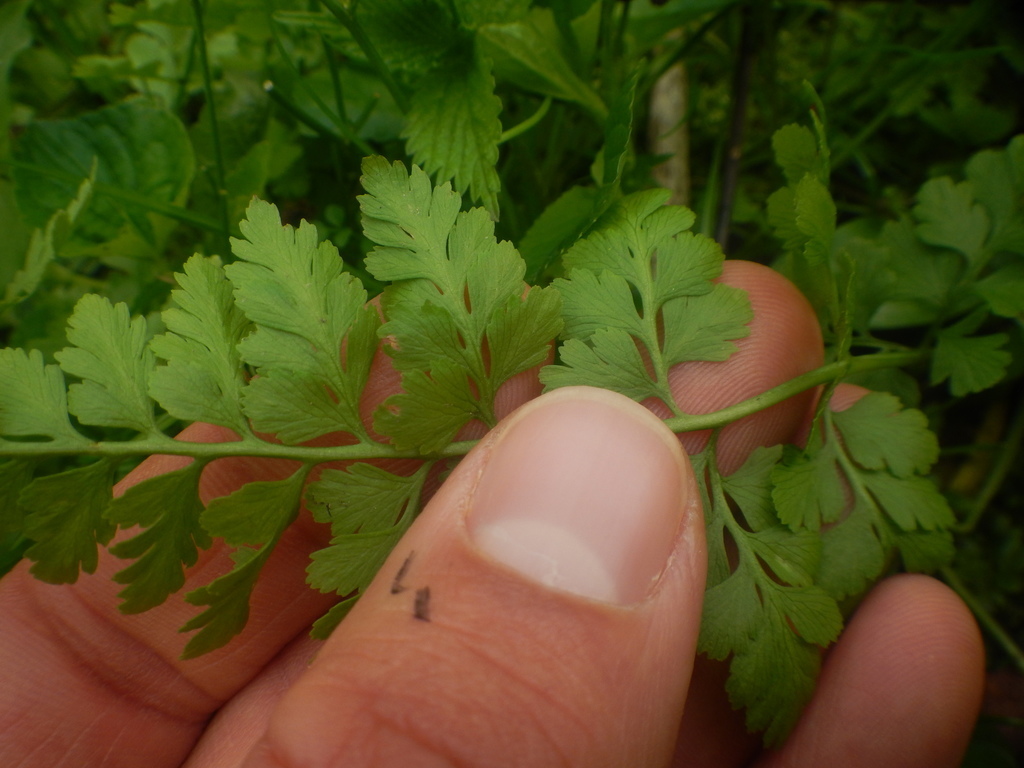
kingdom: Plantae
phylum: Tracheophyta
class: Polypodiopsida
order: Polypodiales
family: Cystopteridaceae
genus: Cystopteris
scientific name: Cystopteris protrusa
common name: Lowland brittle fern
